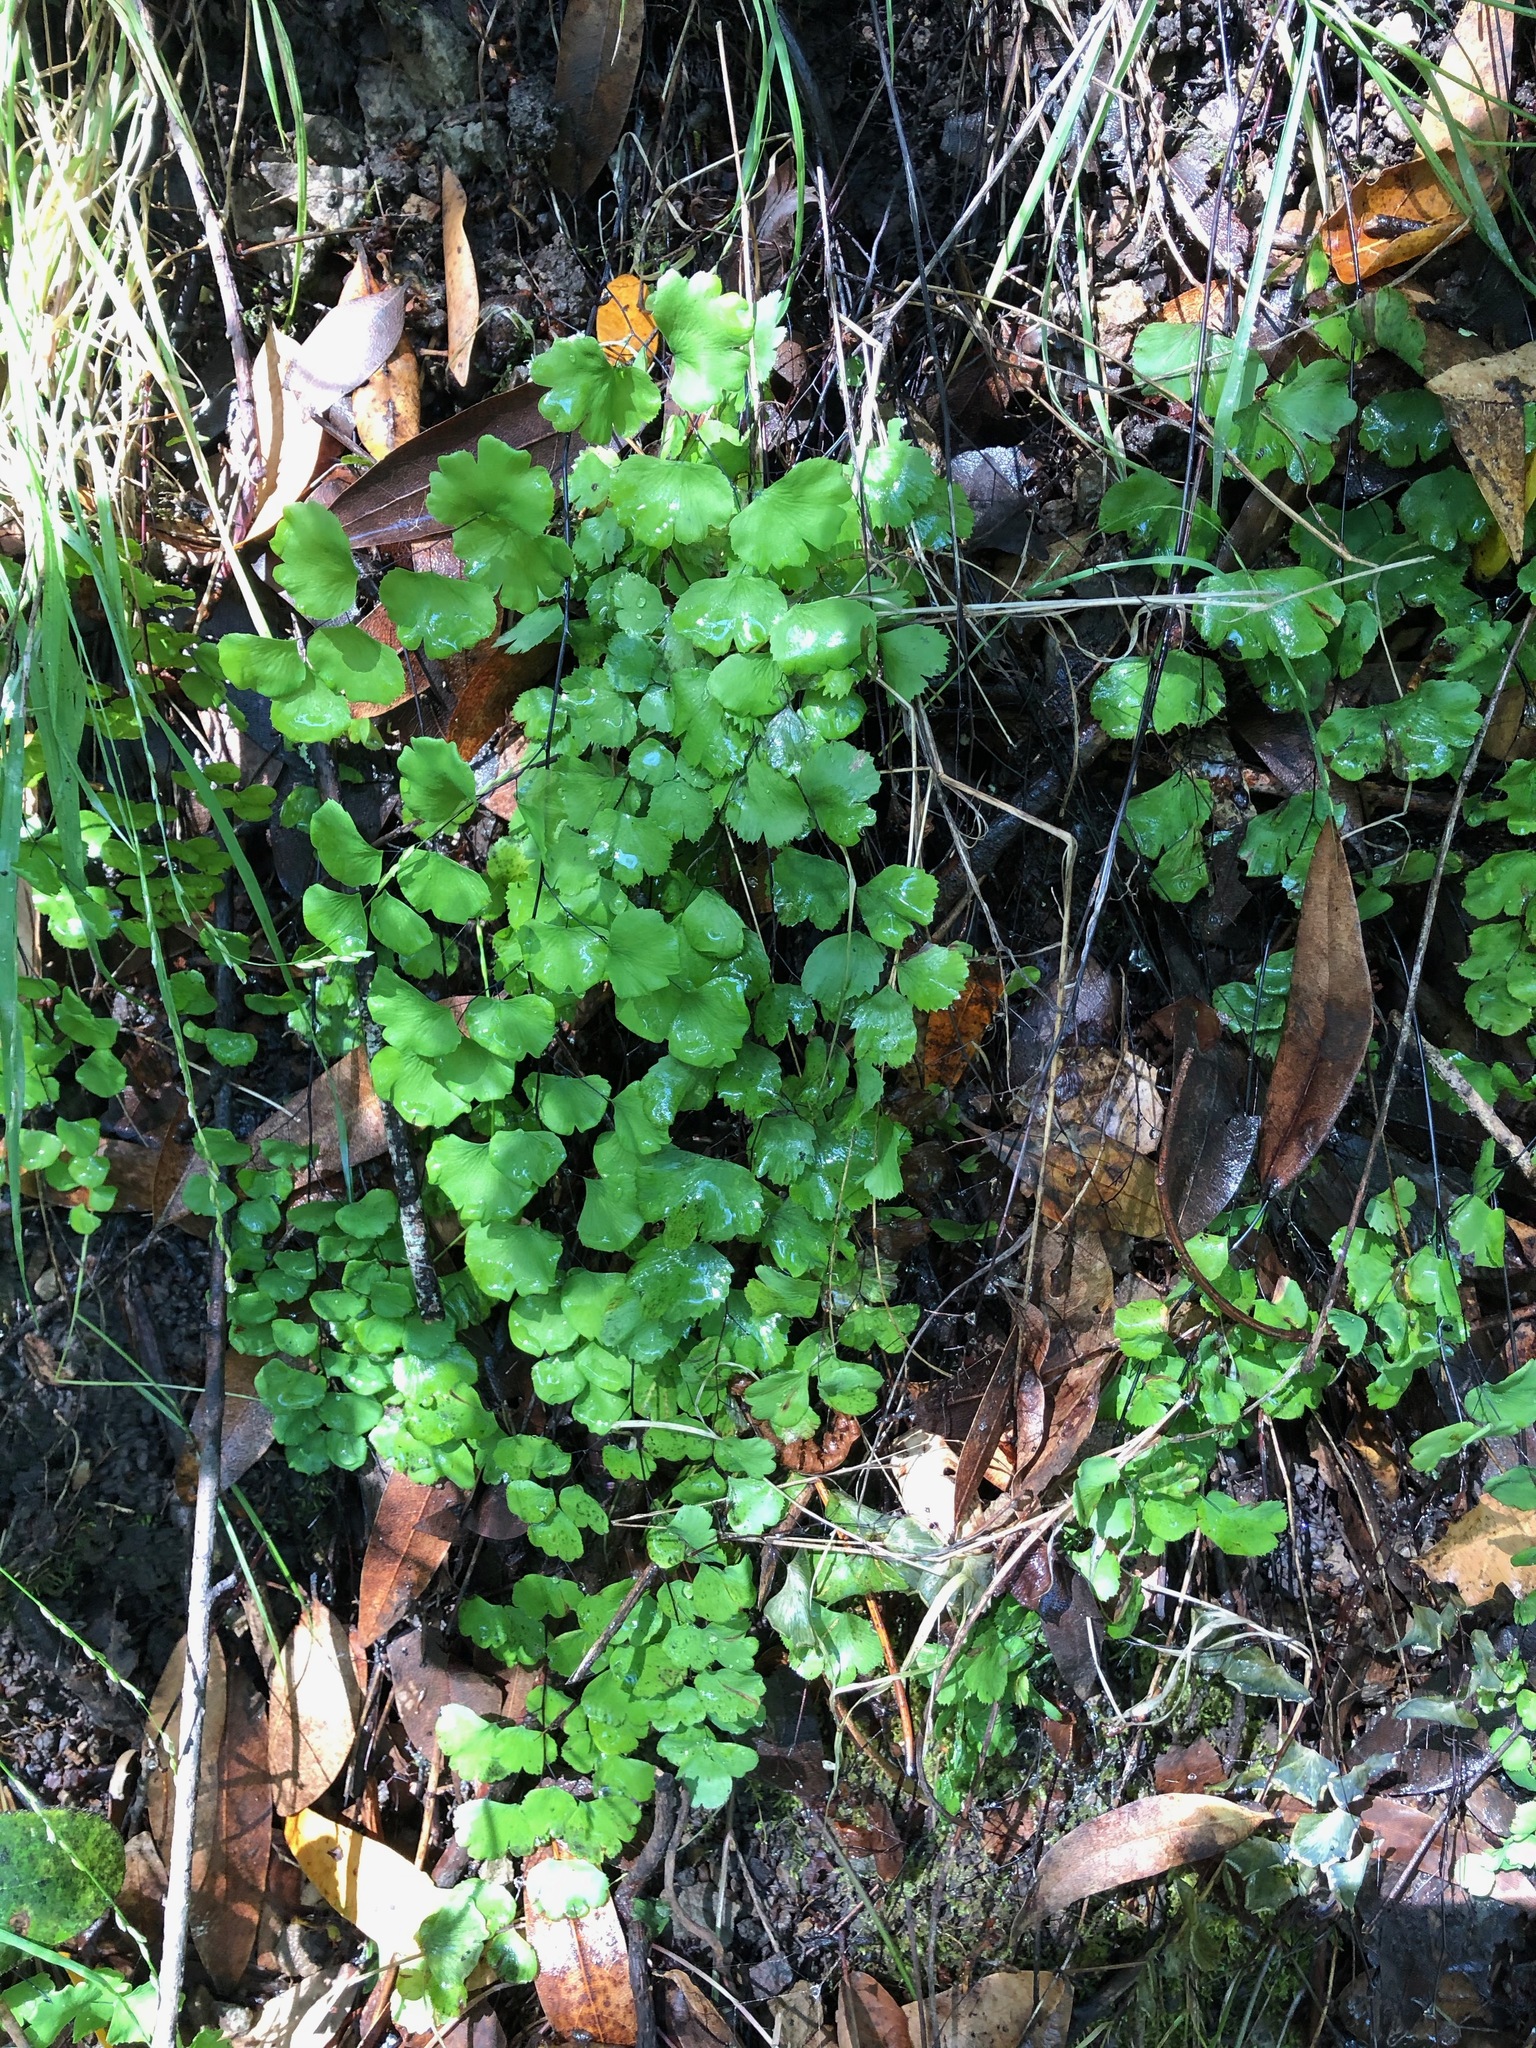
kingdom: Plantae
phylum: Tracheophyta
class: Polypodiopsida
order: Polypodiales
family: Pteridaceae
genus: Adiantum
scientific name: Adiantum jordanii
